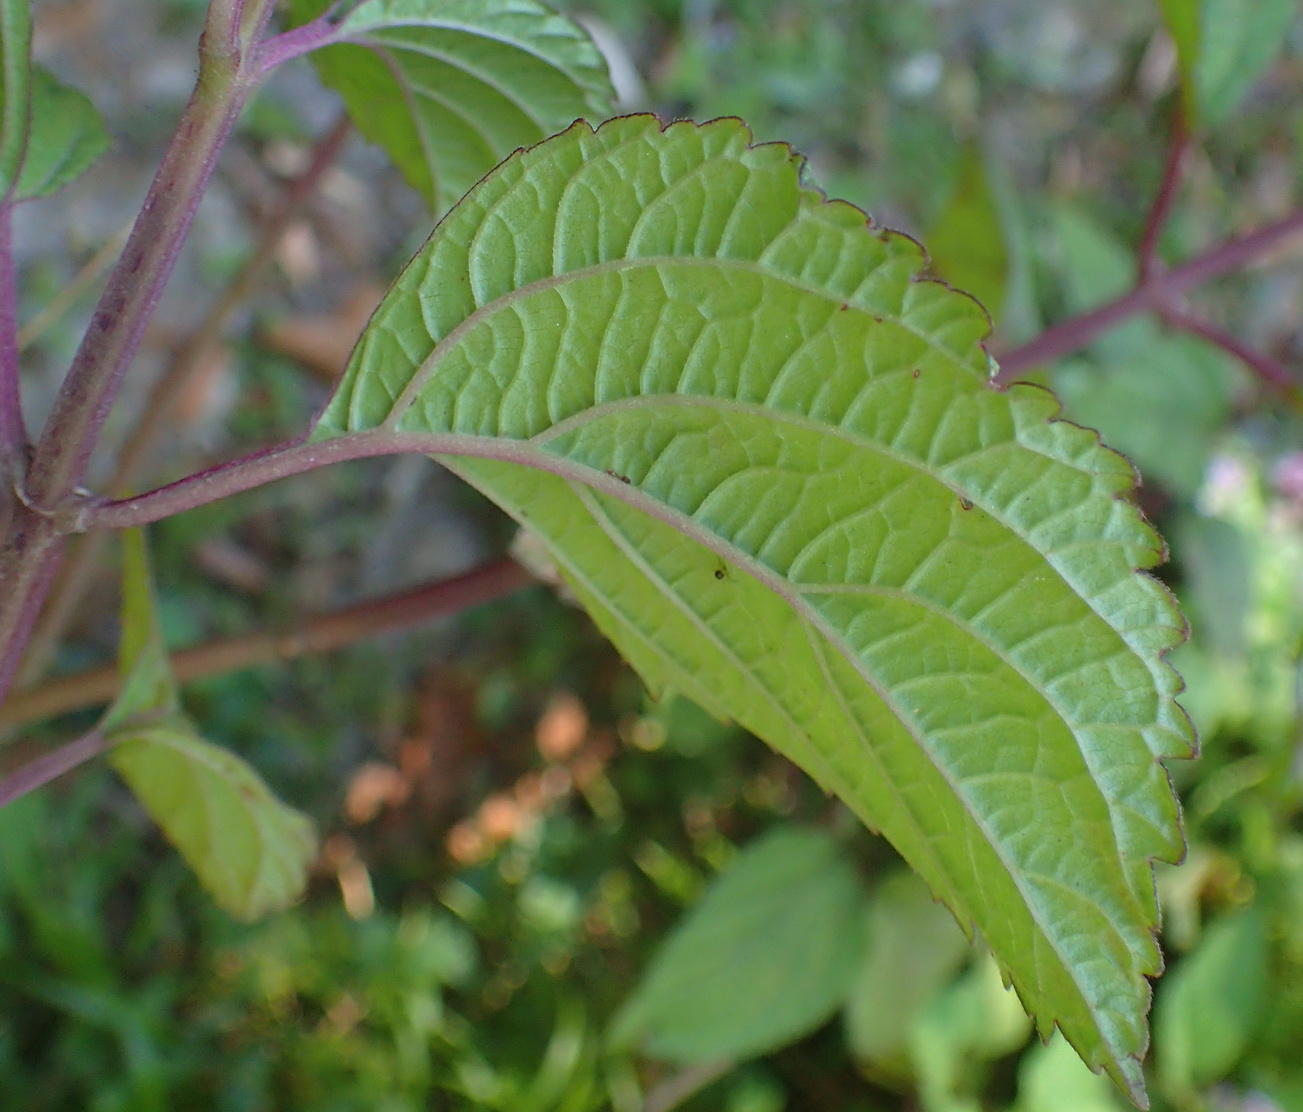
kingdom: Plantae
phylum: Tracheophyta
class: Magnoliopsida
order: Lamiales
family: Lamiaceae
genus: Plectranthus
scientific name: Plectranthus fruticosus
